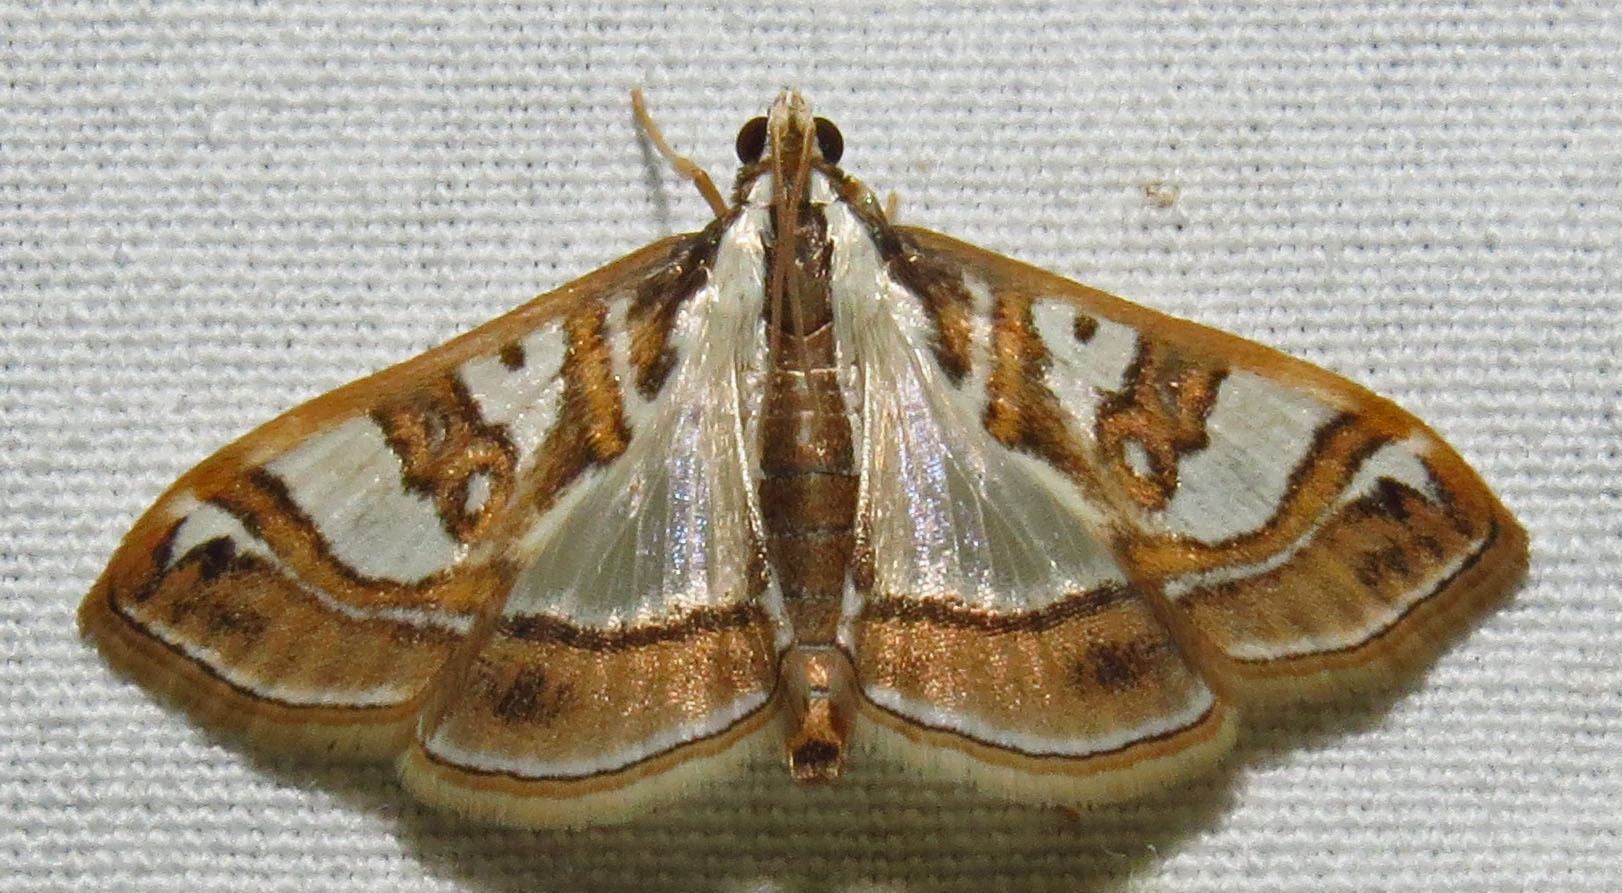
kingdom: Animalia
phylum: Arthropoda
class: Insecta
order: Lepidoptera
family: Crambidae
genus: Glyphodes
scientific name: Glyphodes pyloalis
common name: Lesser mulberry snout moth
